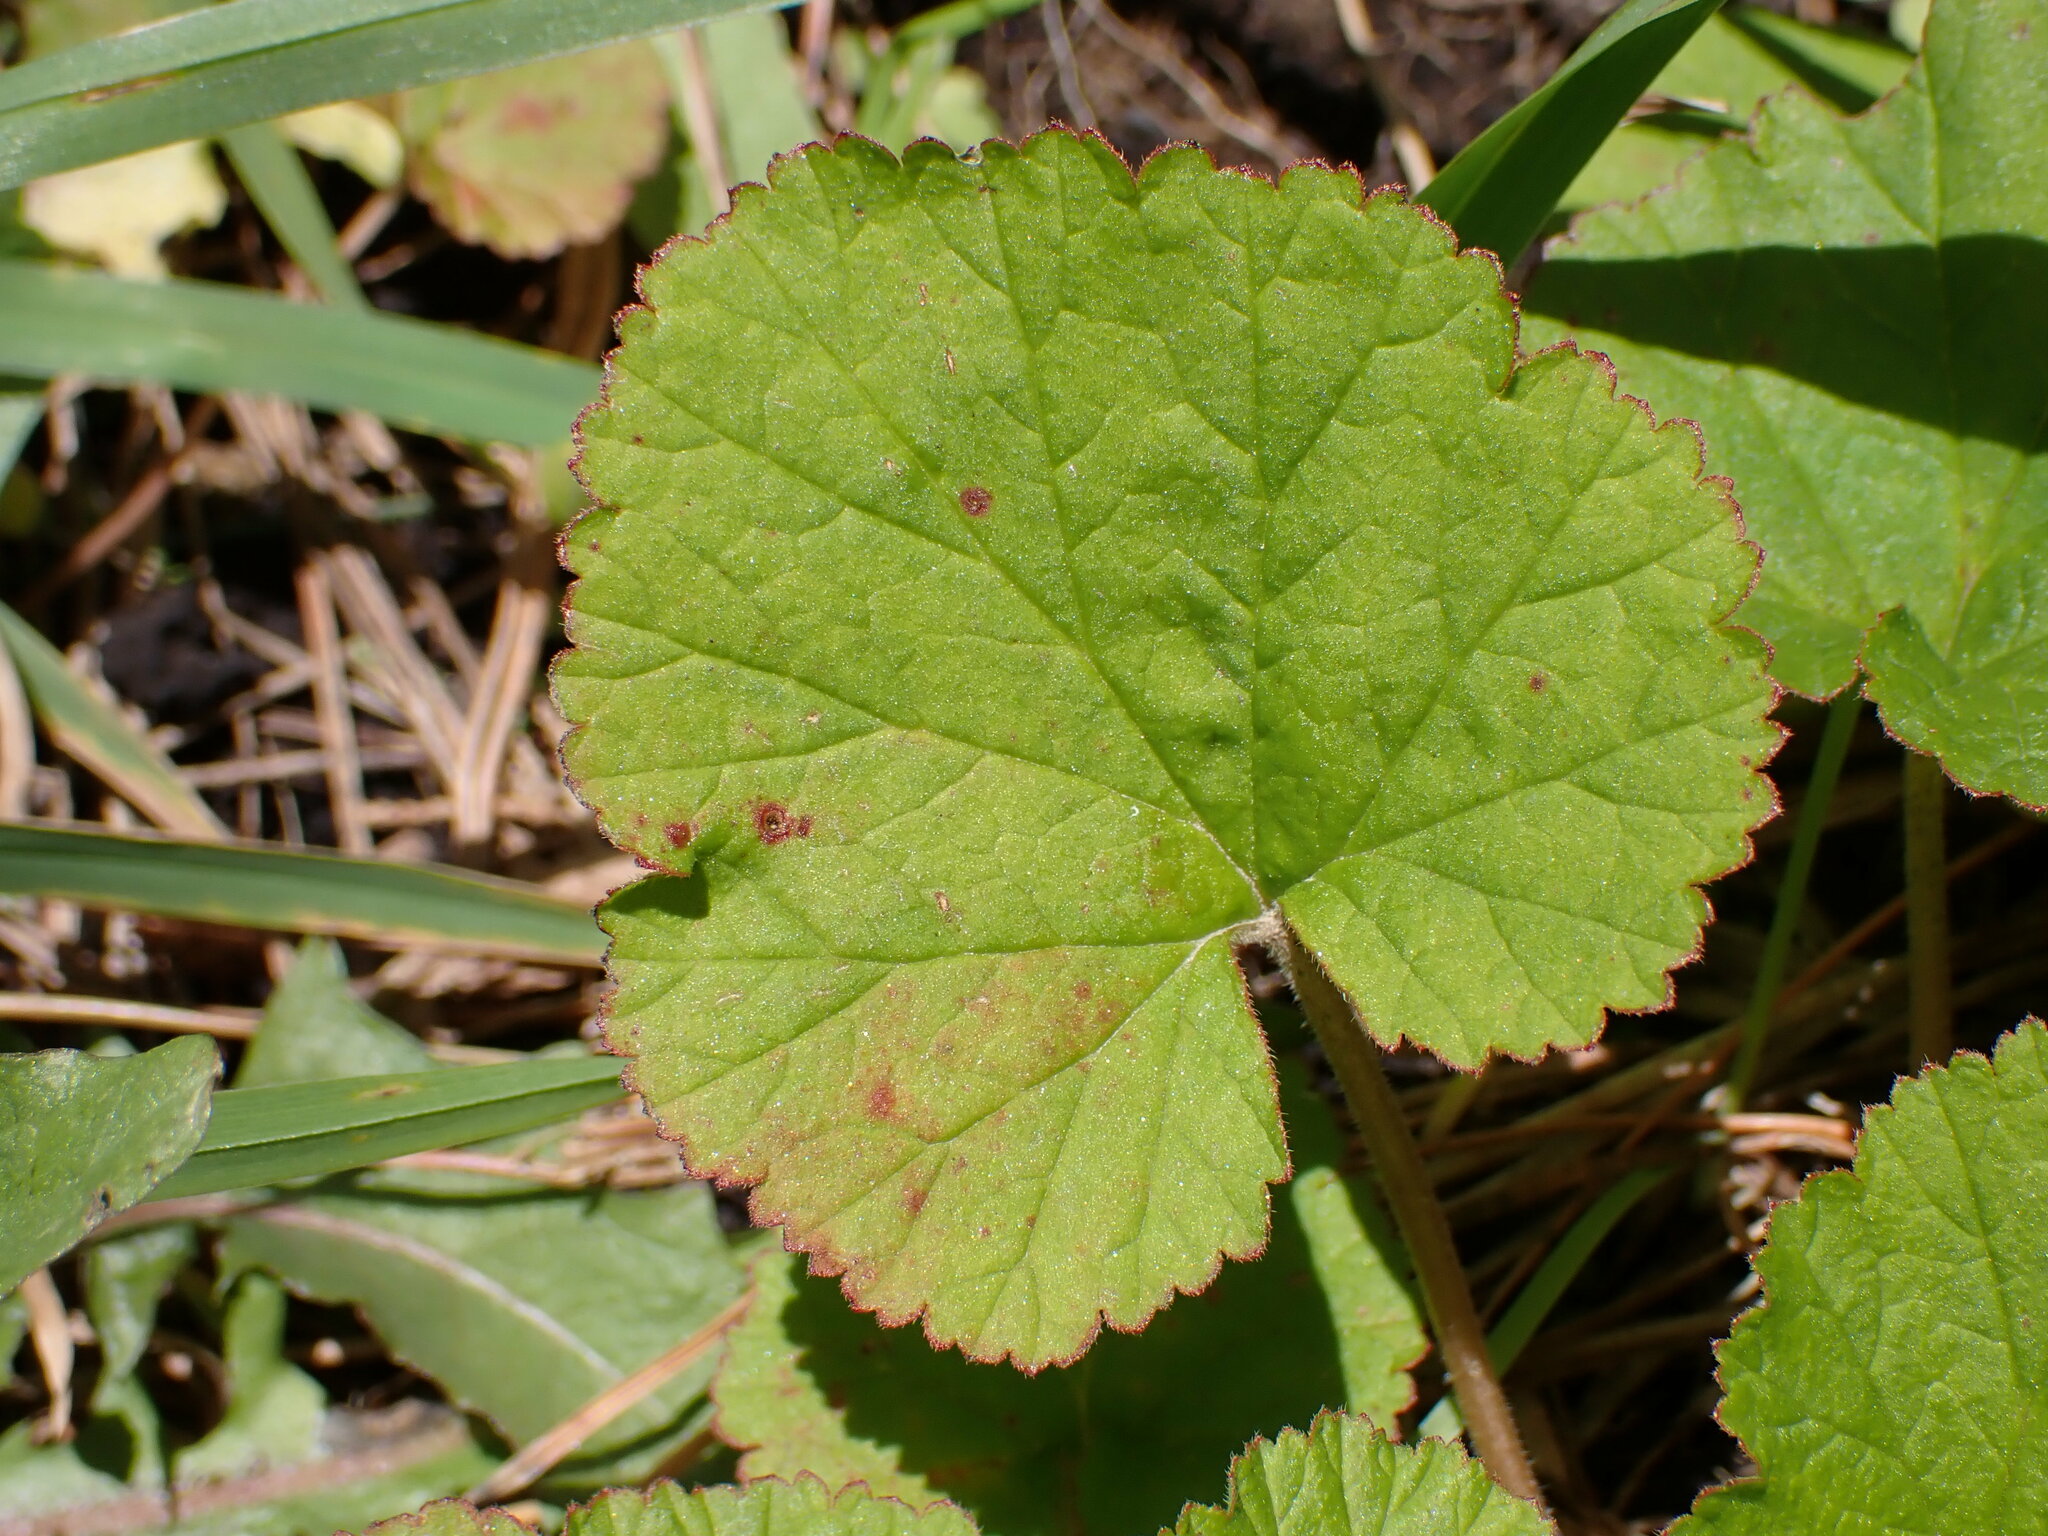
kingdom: Plantae
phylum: Tracheophyta
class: Magnoliopsida
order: Geraniales
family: Geraniaceae
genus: Pelargonium
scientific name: Pelargonium inodorum
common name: Kopata geranium
